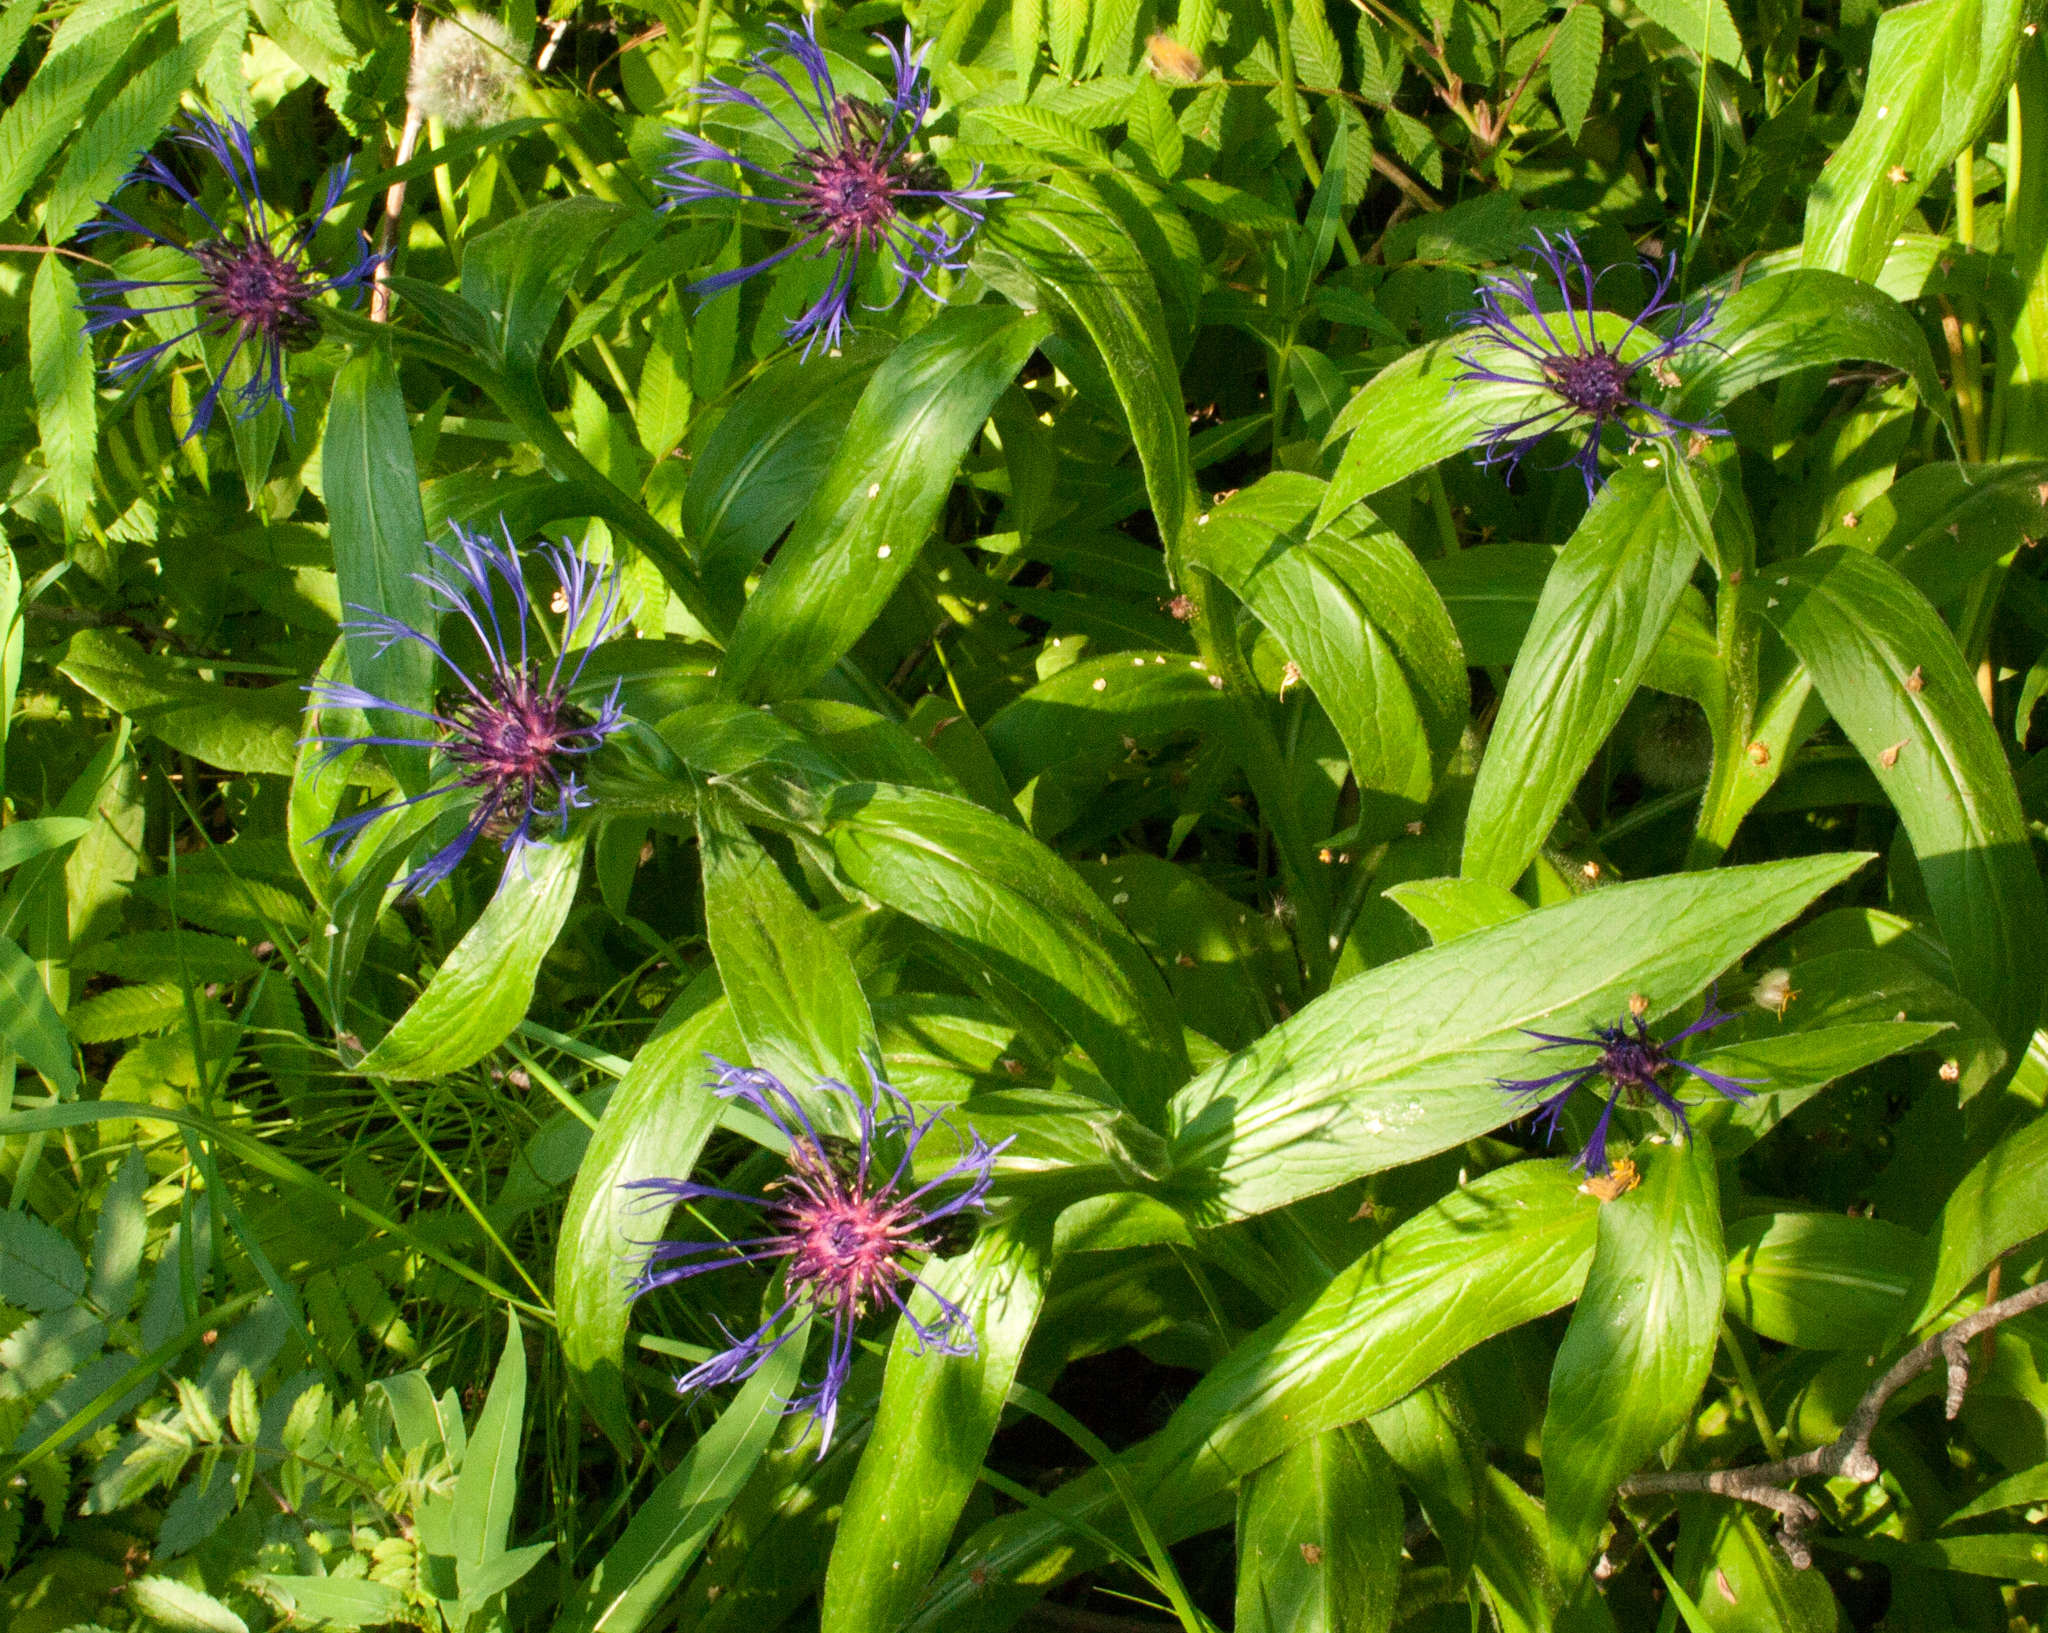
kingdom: Plantae
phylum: Tracheophyta
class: Magnoliopsida
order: Asterales
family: Asteraceae
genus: Centaurea
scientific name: Centaurea montana
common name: Perennial cornflower
